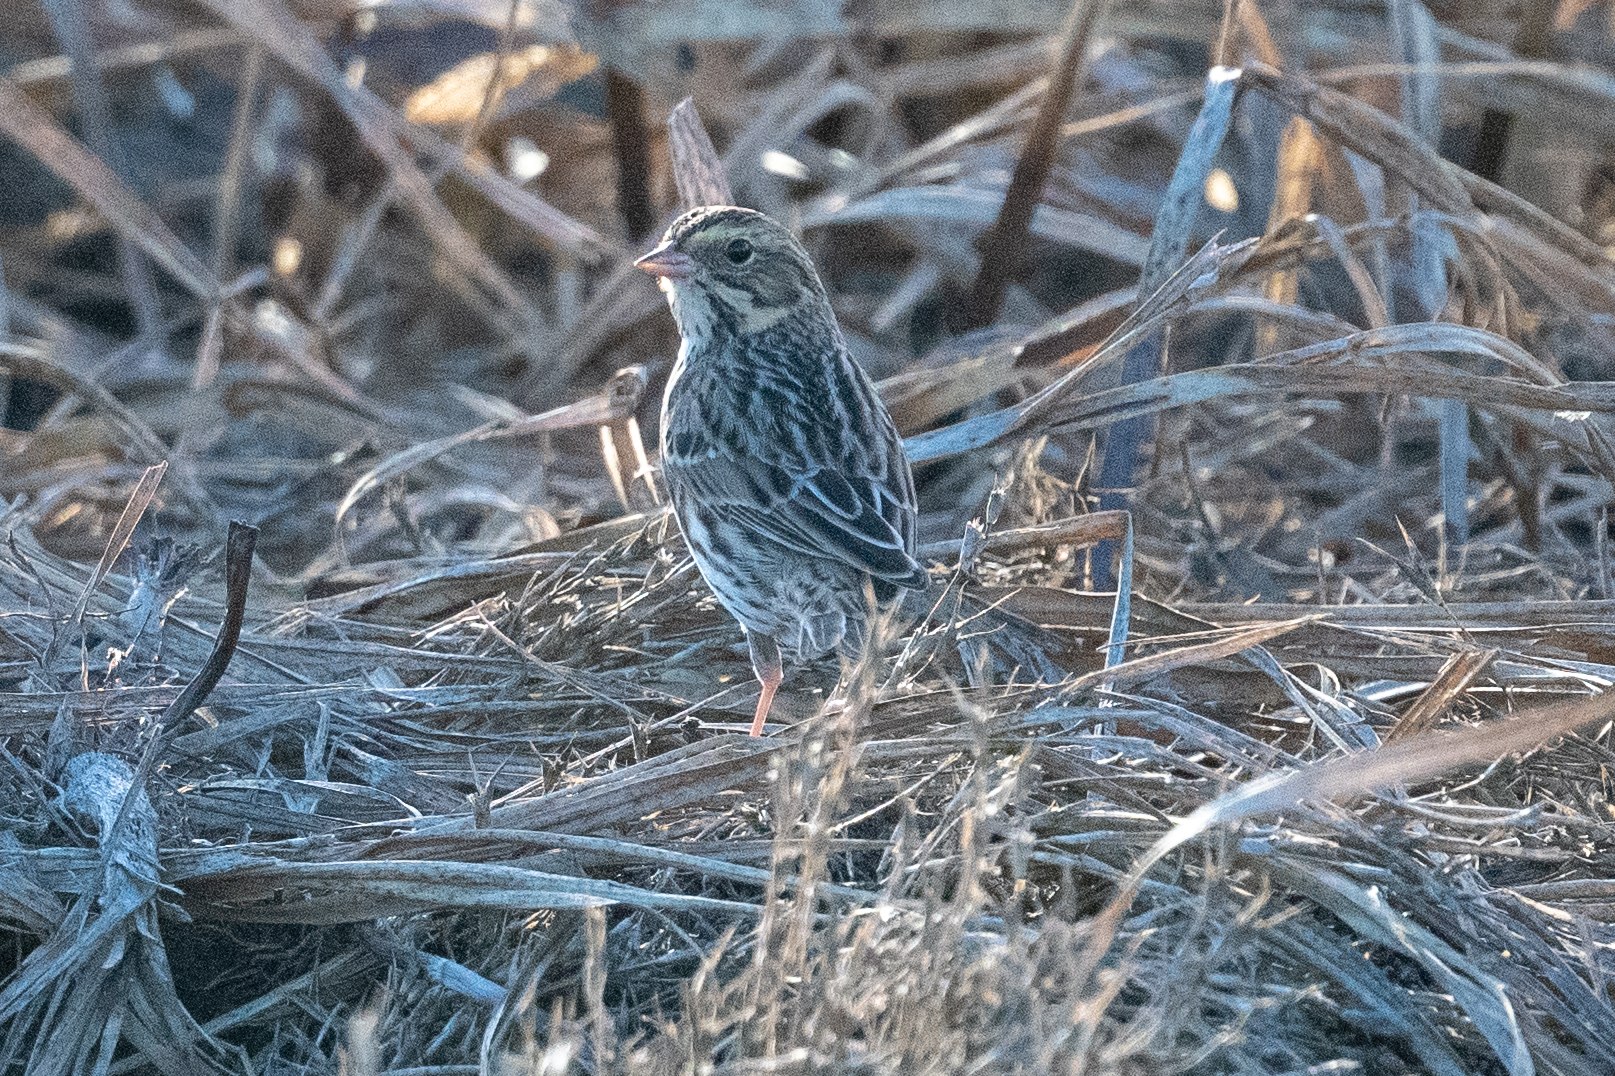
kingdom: Animalia
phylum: Chordata
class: Aves
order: Passeriformes
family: Passerellidae
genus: Passerculus
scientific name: Passerculus sandwichensis
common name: Savannah sparrow
